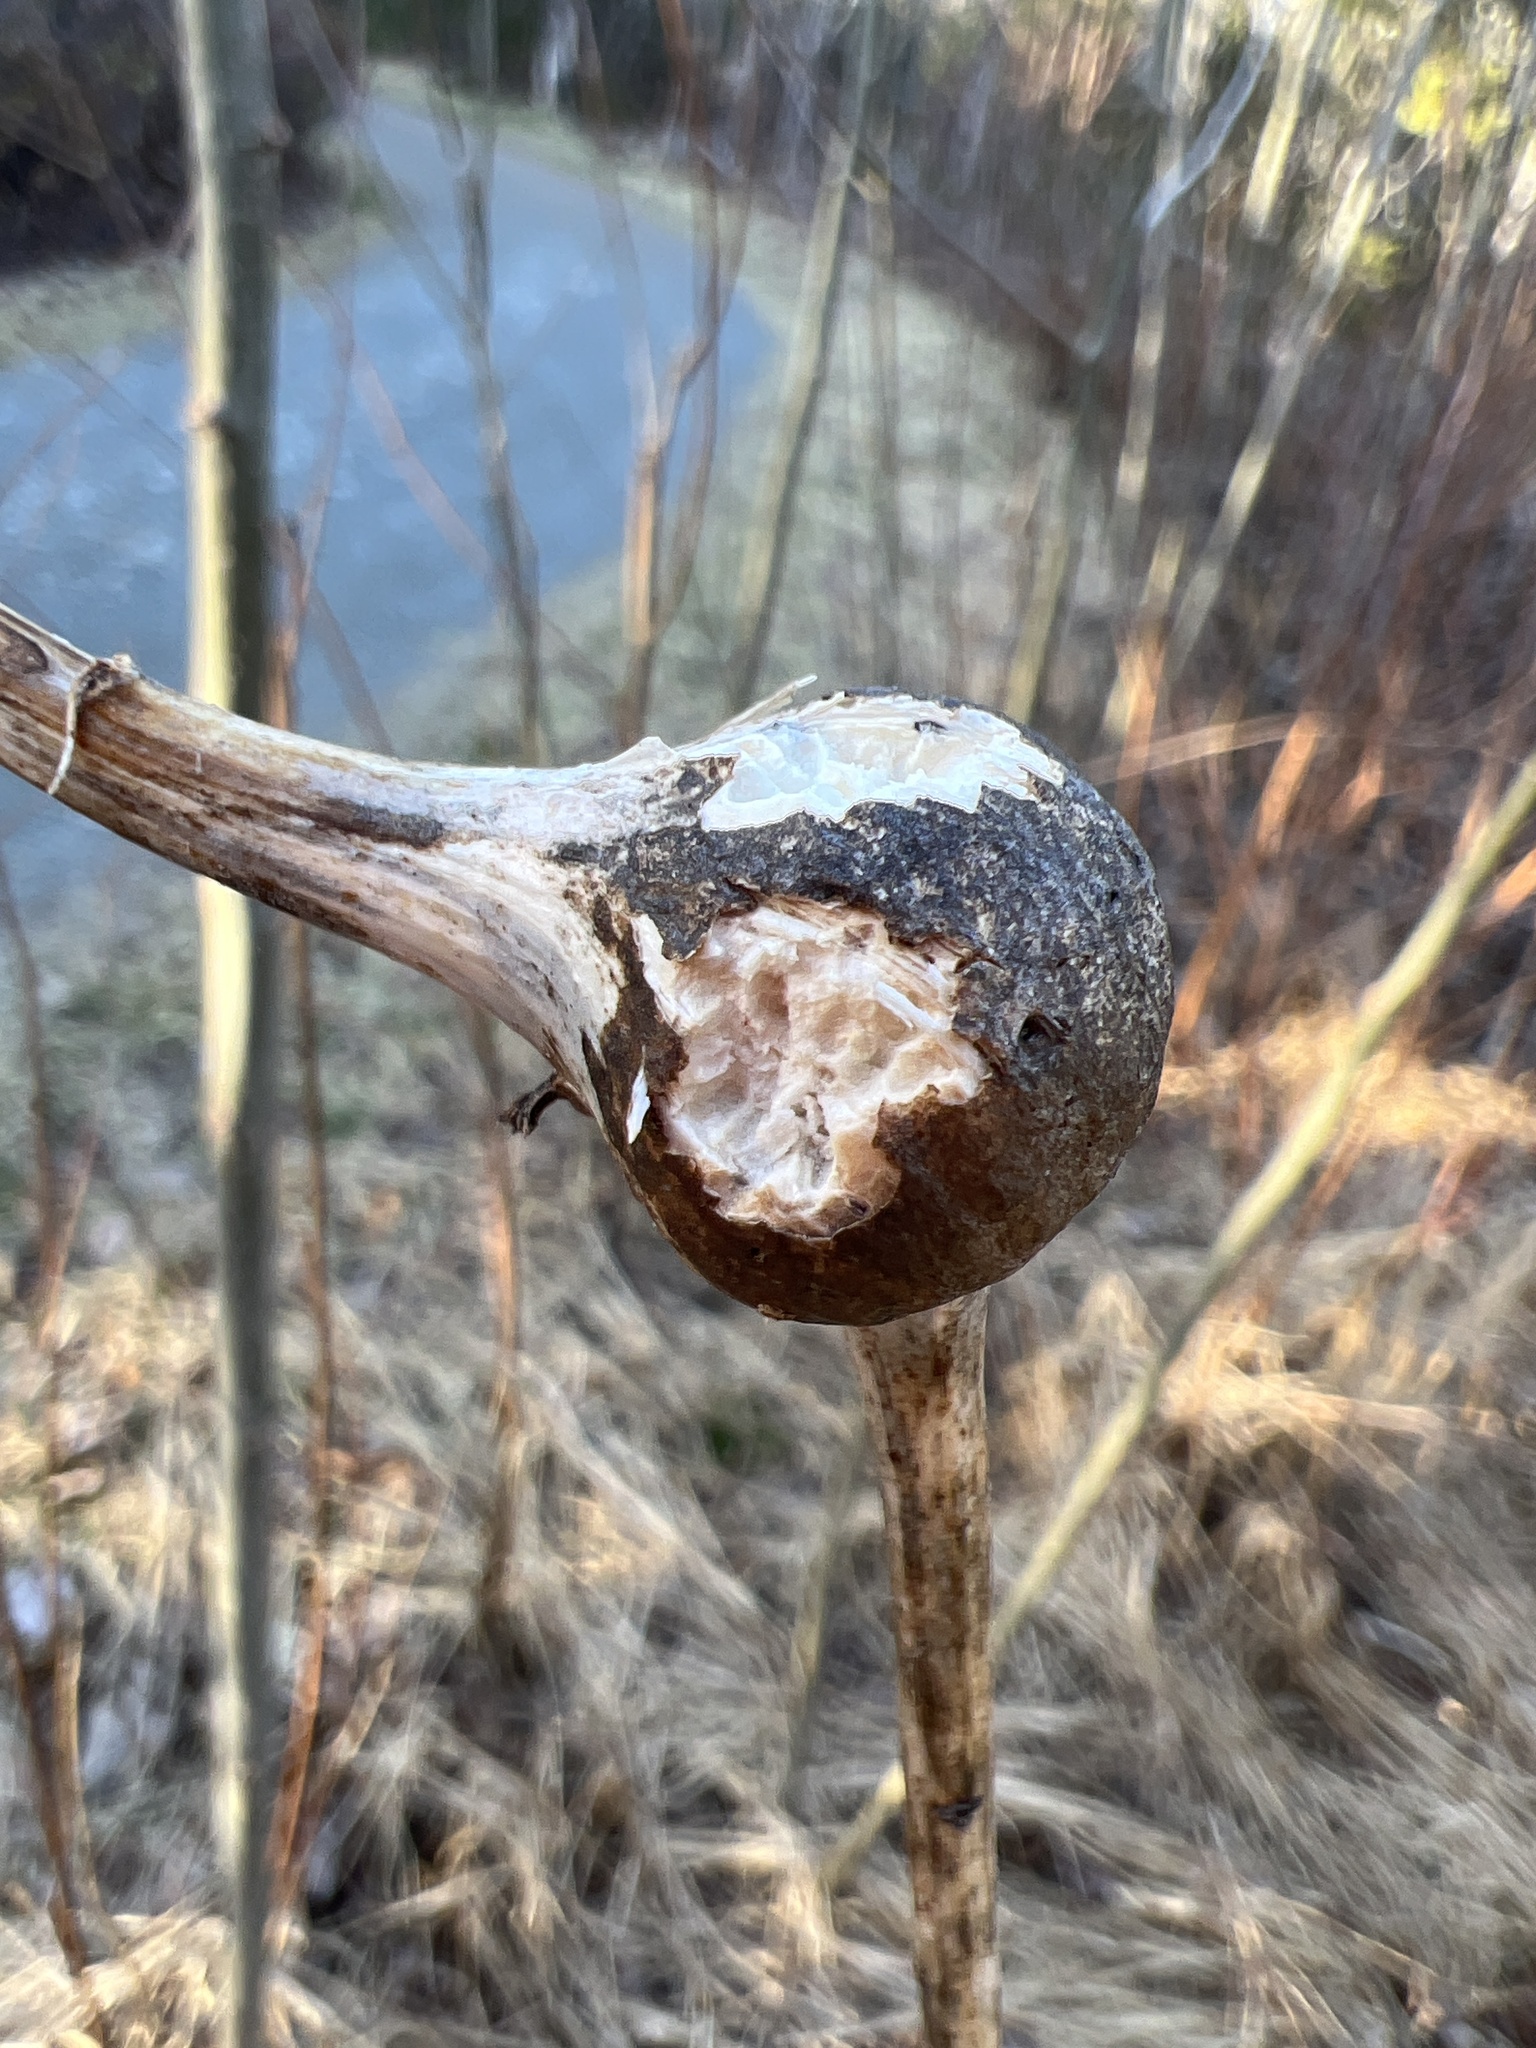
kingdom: Animalia
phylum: Arthropoda
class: Insecta
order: Diptera
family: Tephritidae
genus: Eurosta
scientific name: Eurosta solidaginis
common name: Goldenrod gall fly
